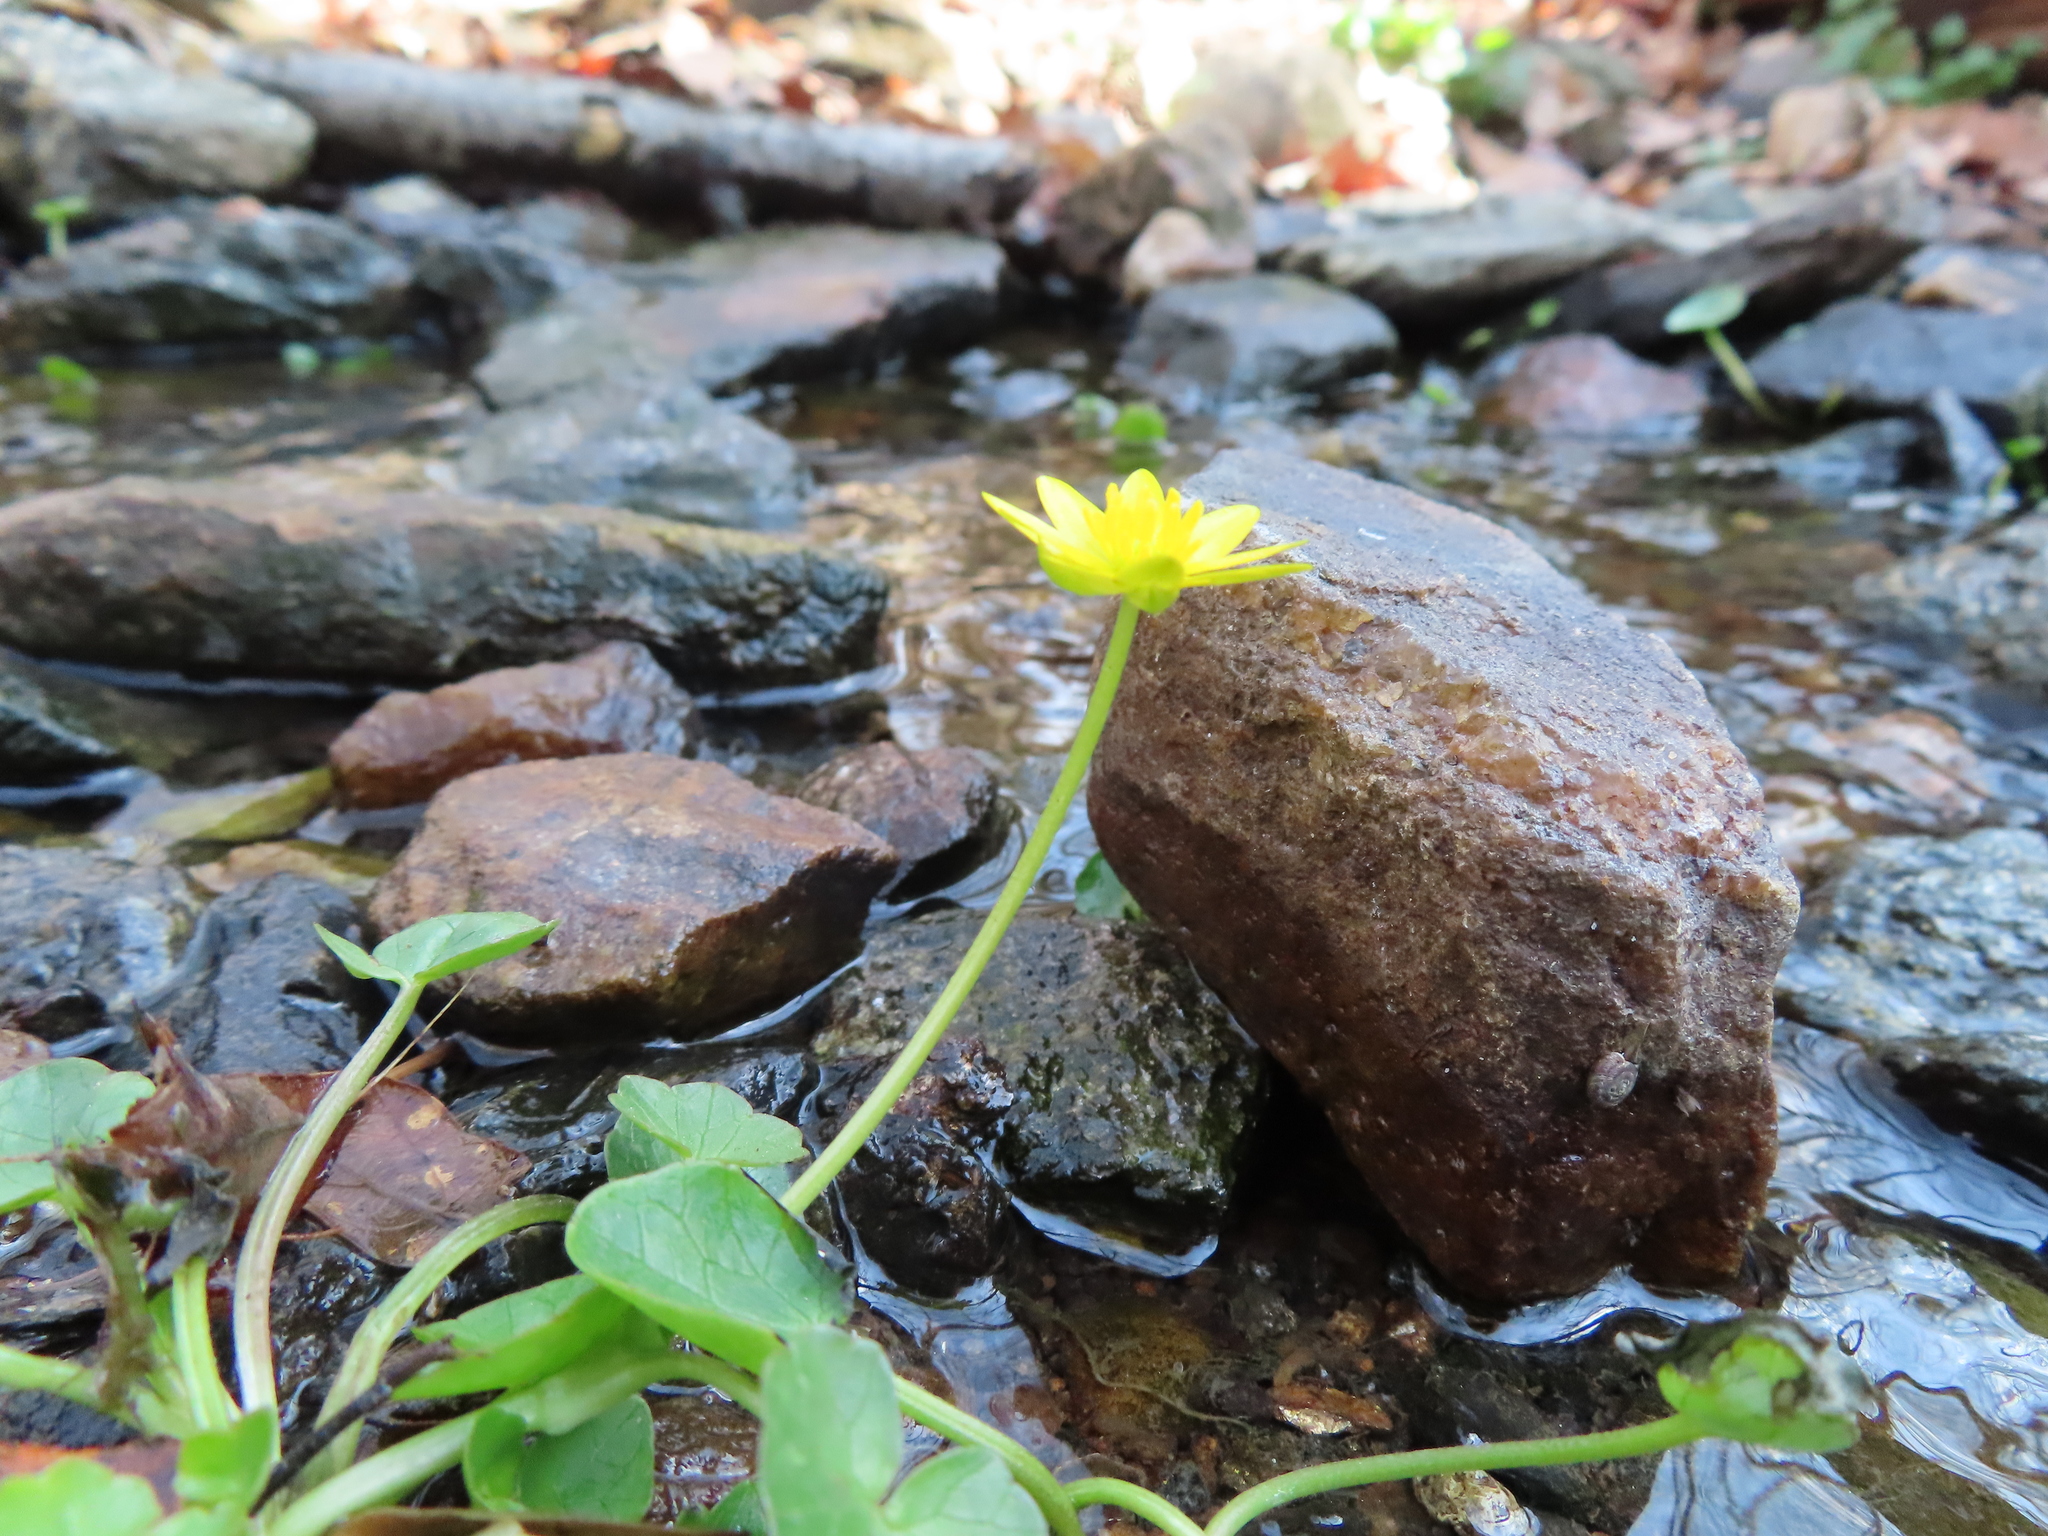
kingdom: Plantae
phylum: Tracheophyta
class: Magnoliopsida
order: Ranunculales
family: Ranunculaceae
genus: Ficaria
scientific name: Ficaria verna
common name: Lesser celandine
